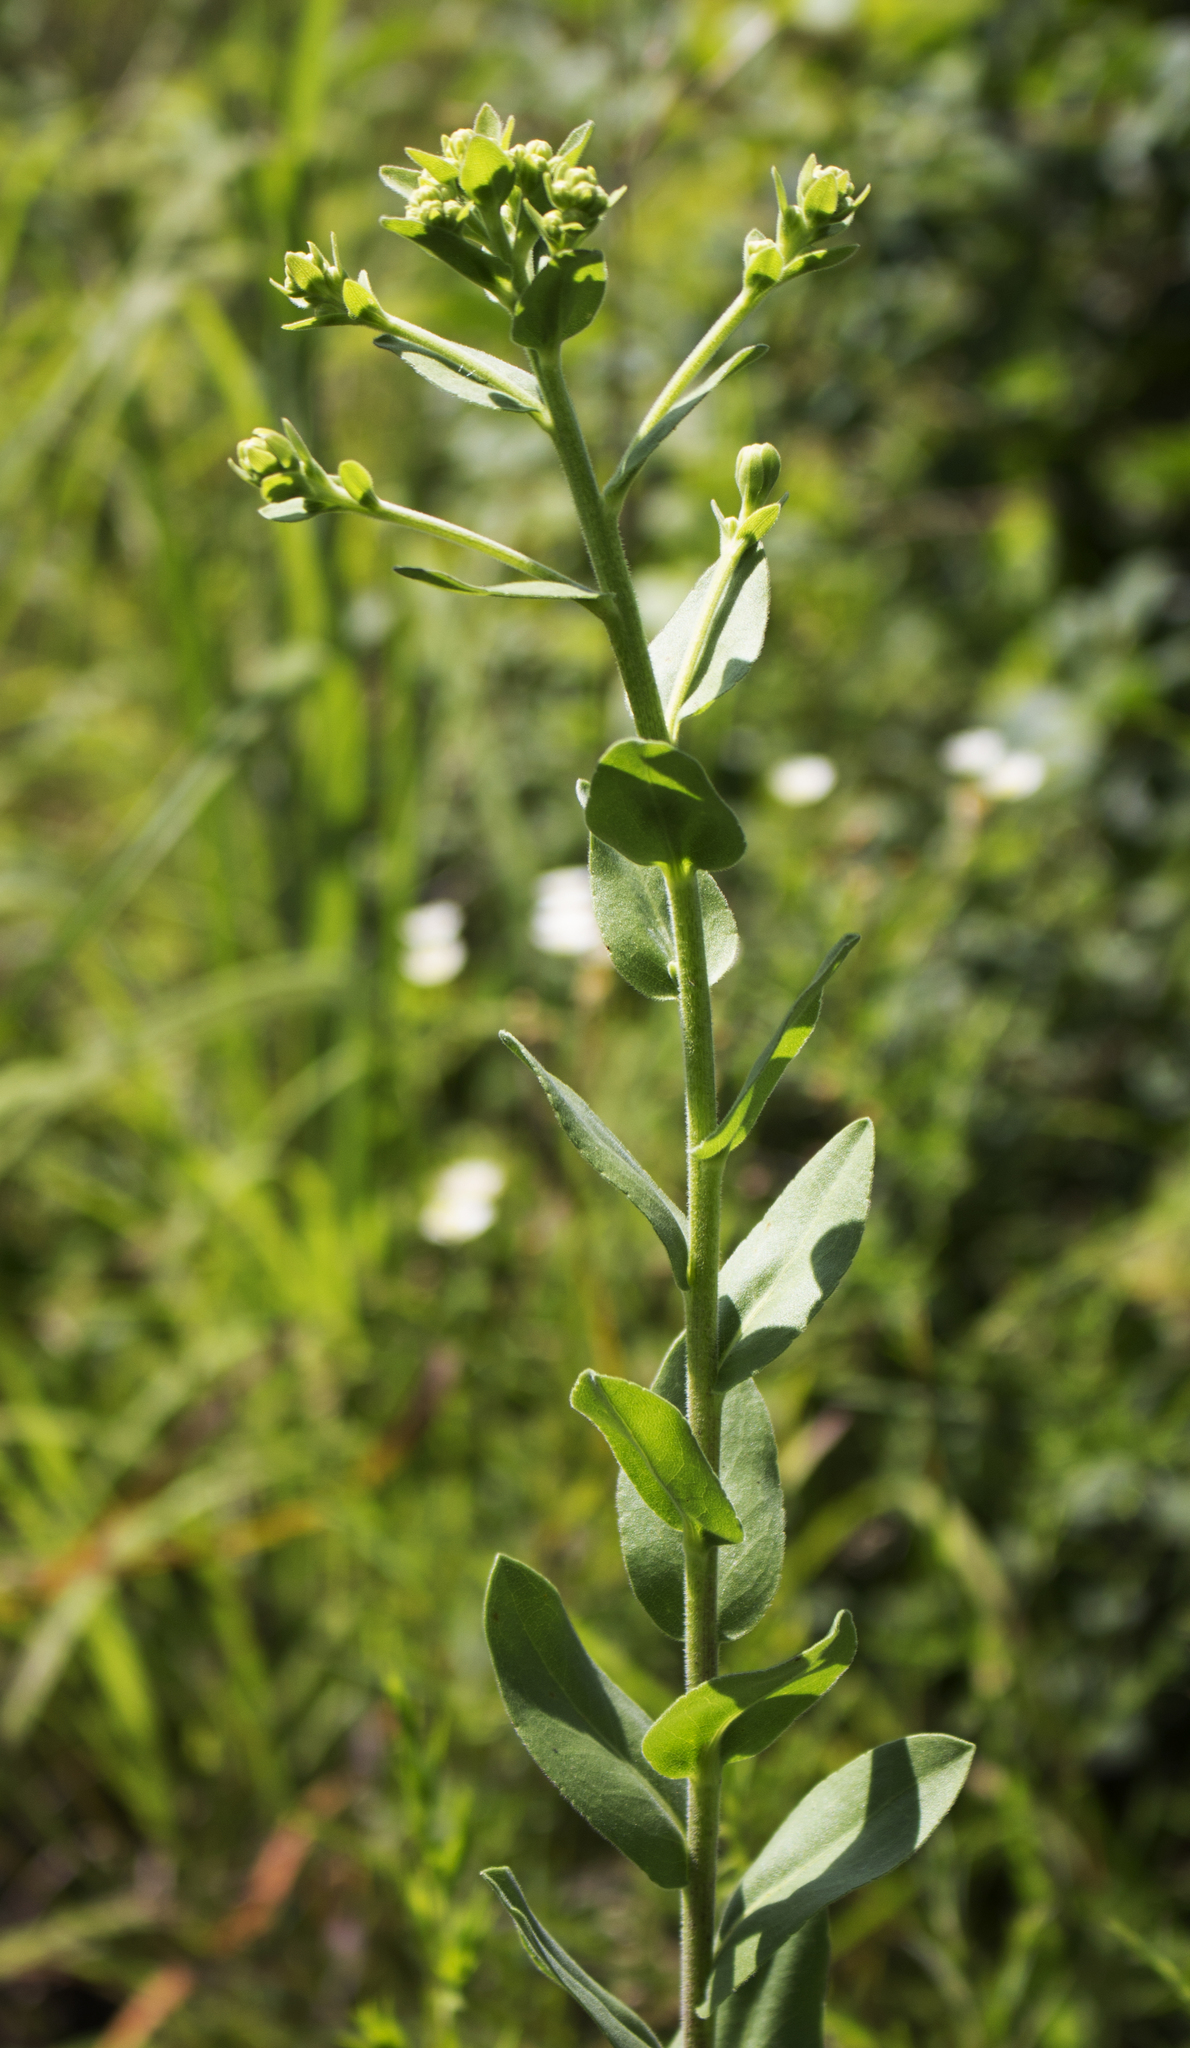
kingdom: Plantae
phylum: Tracheophyta
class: Magnoliopsida
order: Asterales
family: Asteraceae
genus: Solidago
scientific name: Solidago rigida
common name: Rigid goldenrod
